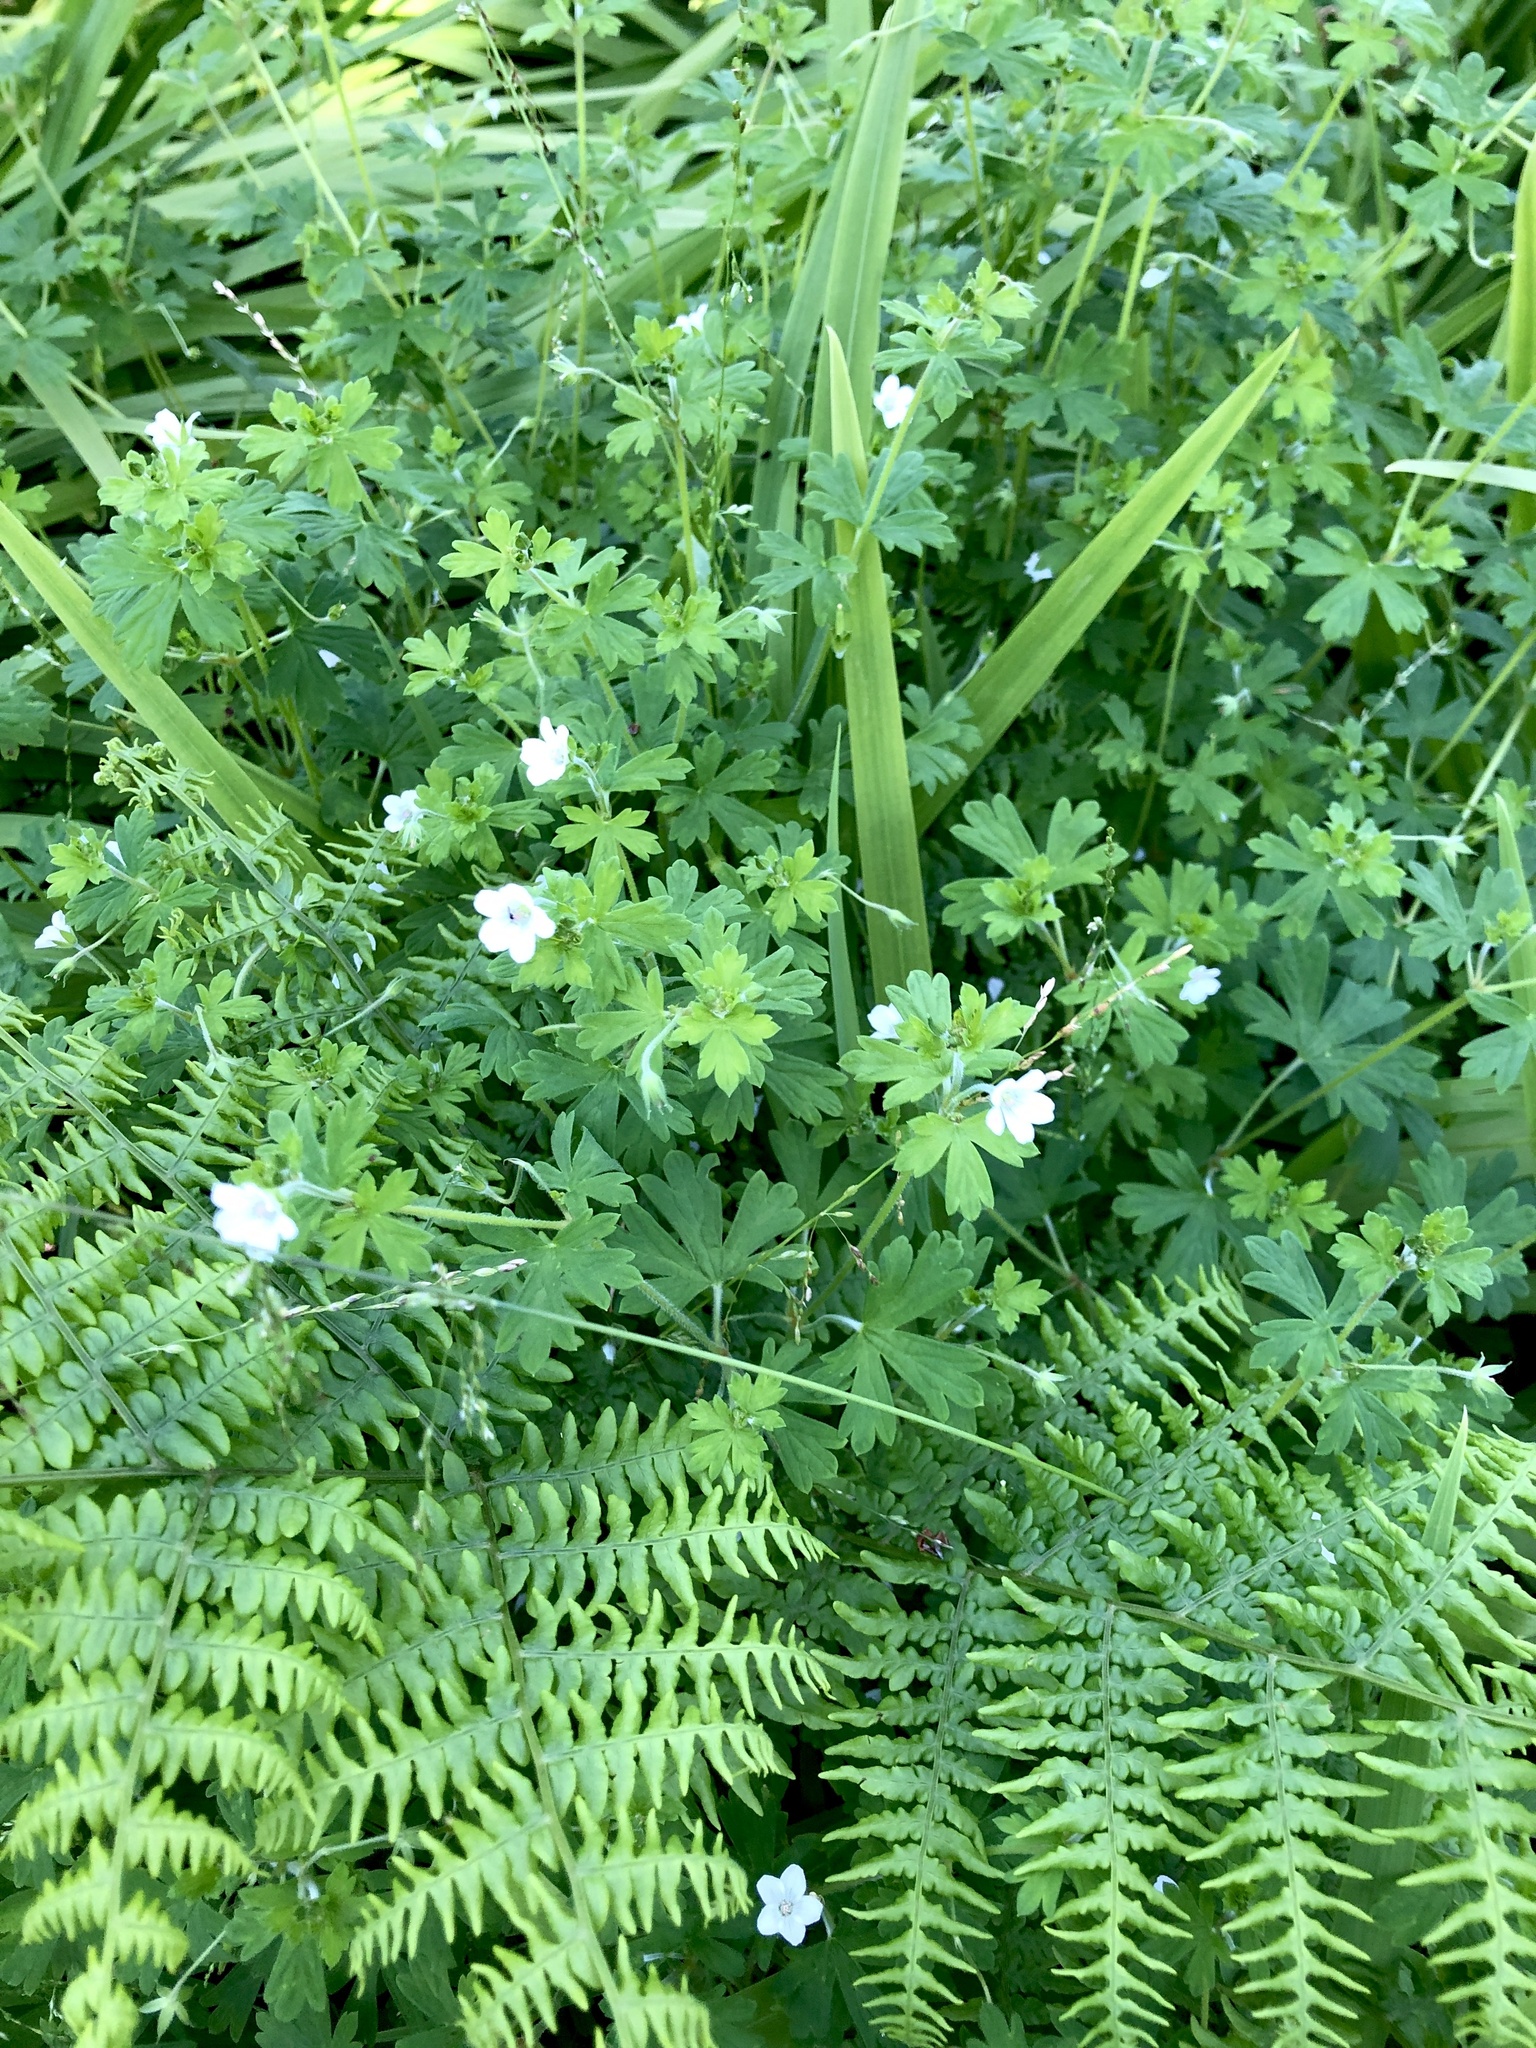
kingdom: Plantae
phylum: Tracheophyta
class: Magnoliopsida
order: Geraniales
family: Geraniaceae
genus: Geranium
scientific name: Geranium potentilloides
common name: Cinquefoil geranium
